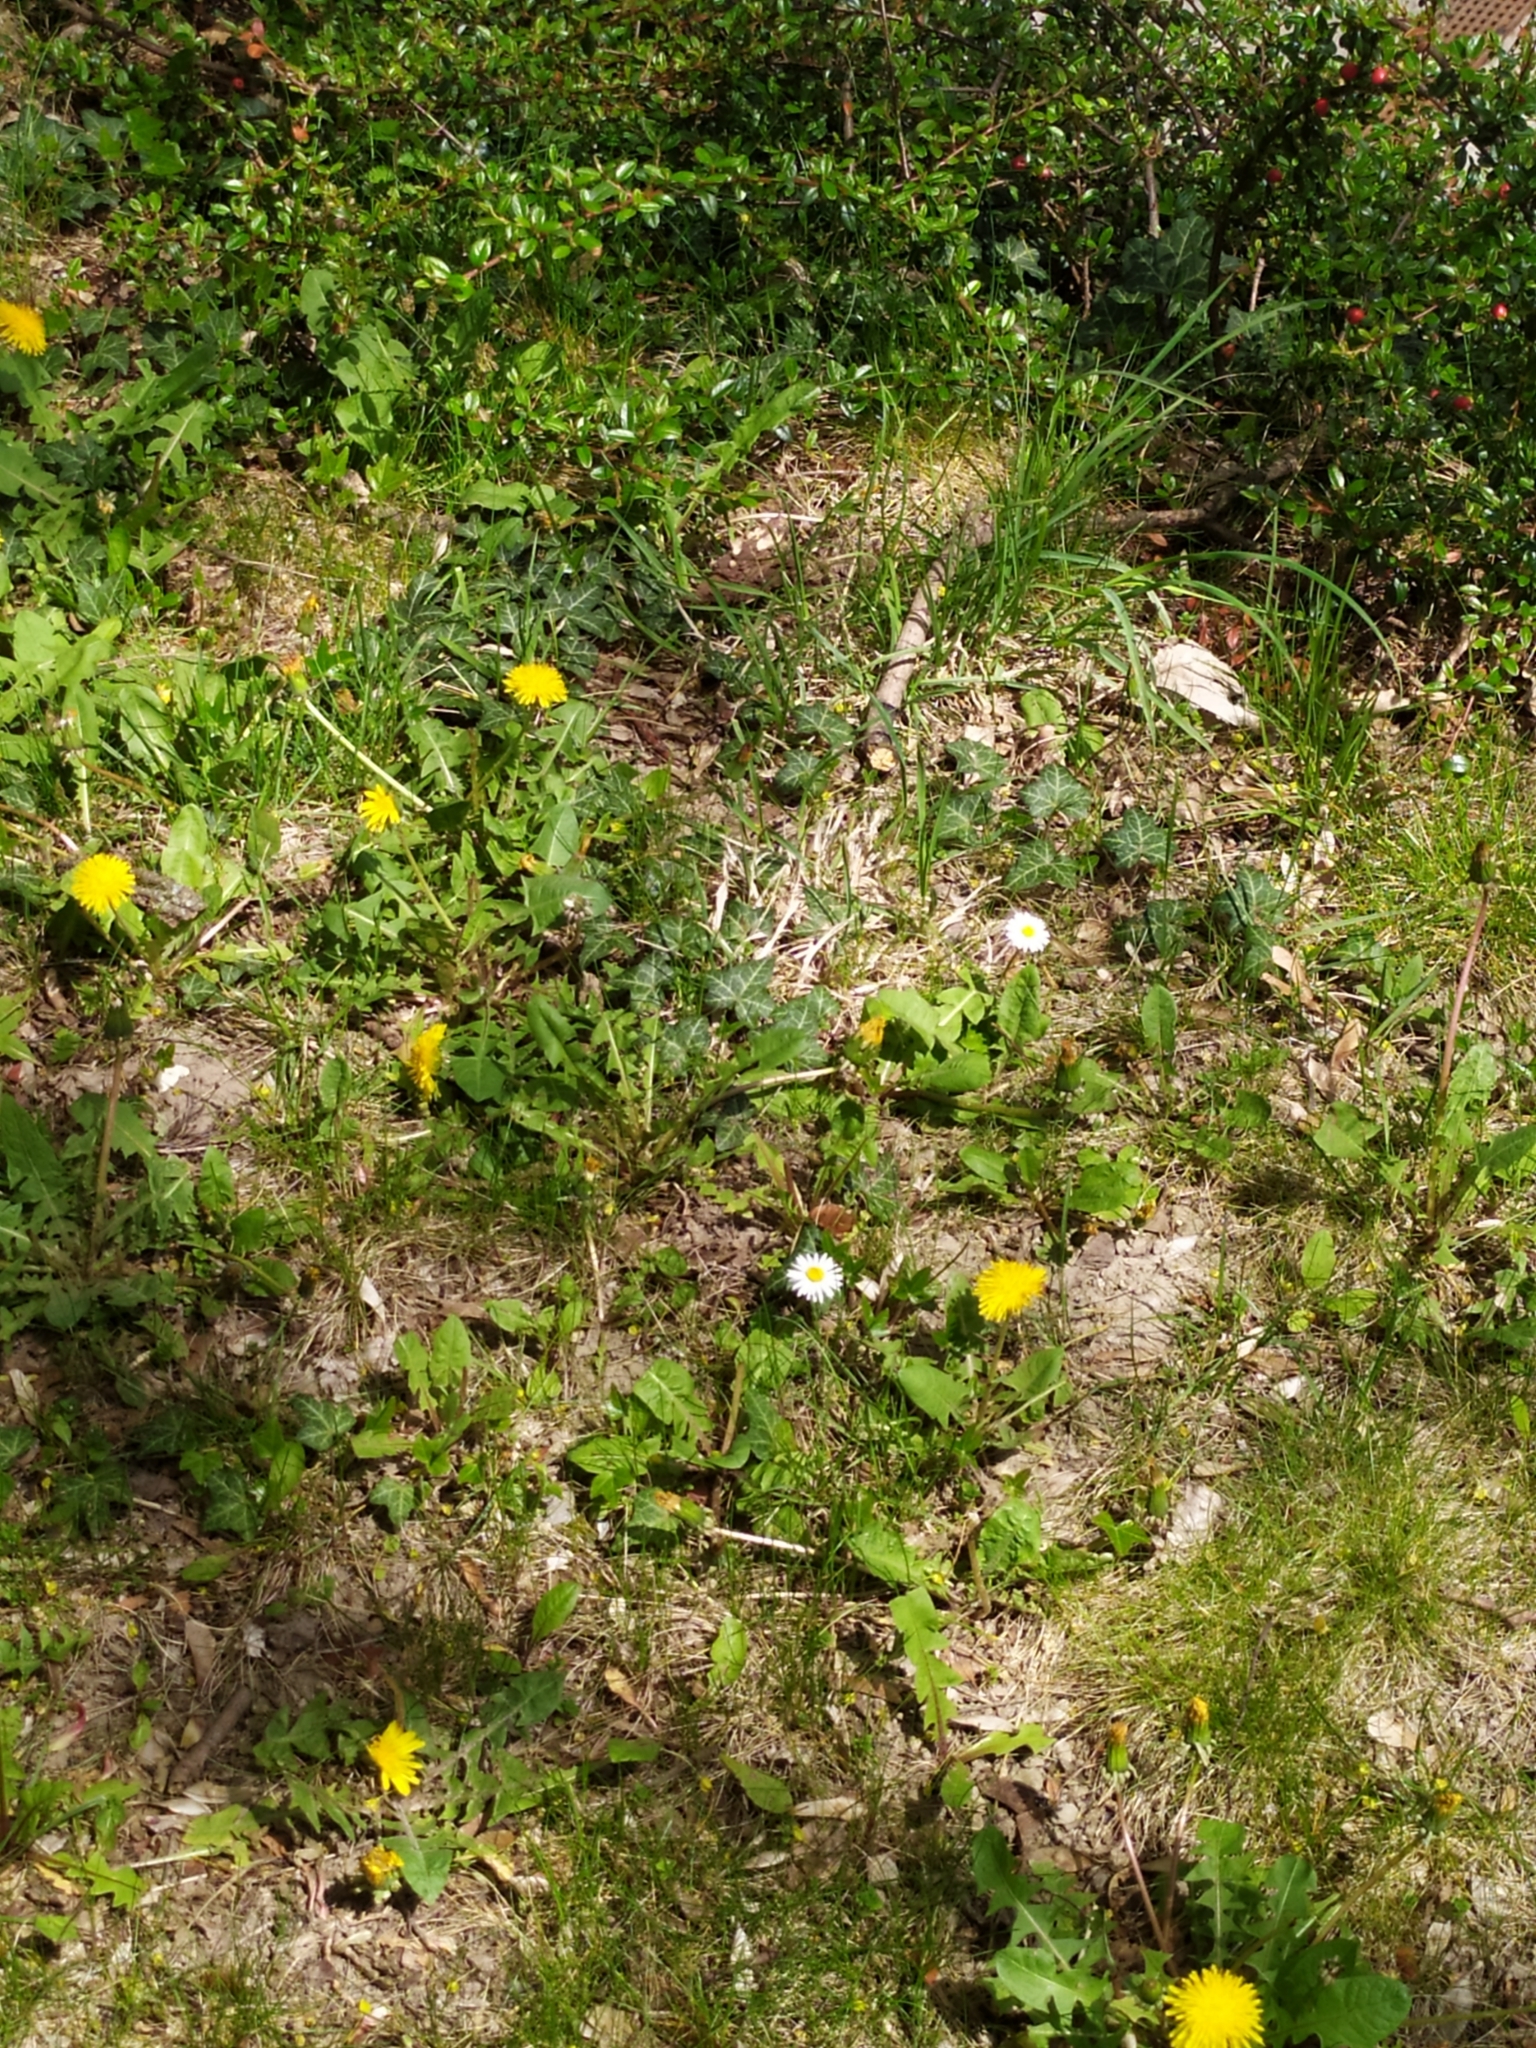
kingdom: Plantae
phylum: Tracheophyta
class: Magnoliopsida
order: Asterales
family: Asteraceae
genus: Taraxacum
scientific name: Taraxacum officinale
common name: Common dandelion
